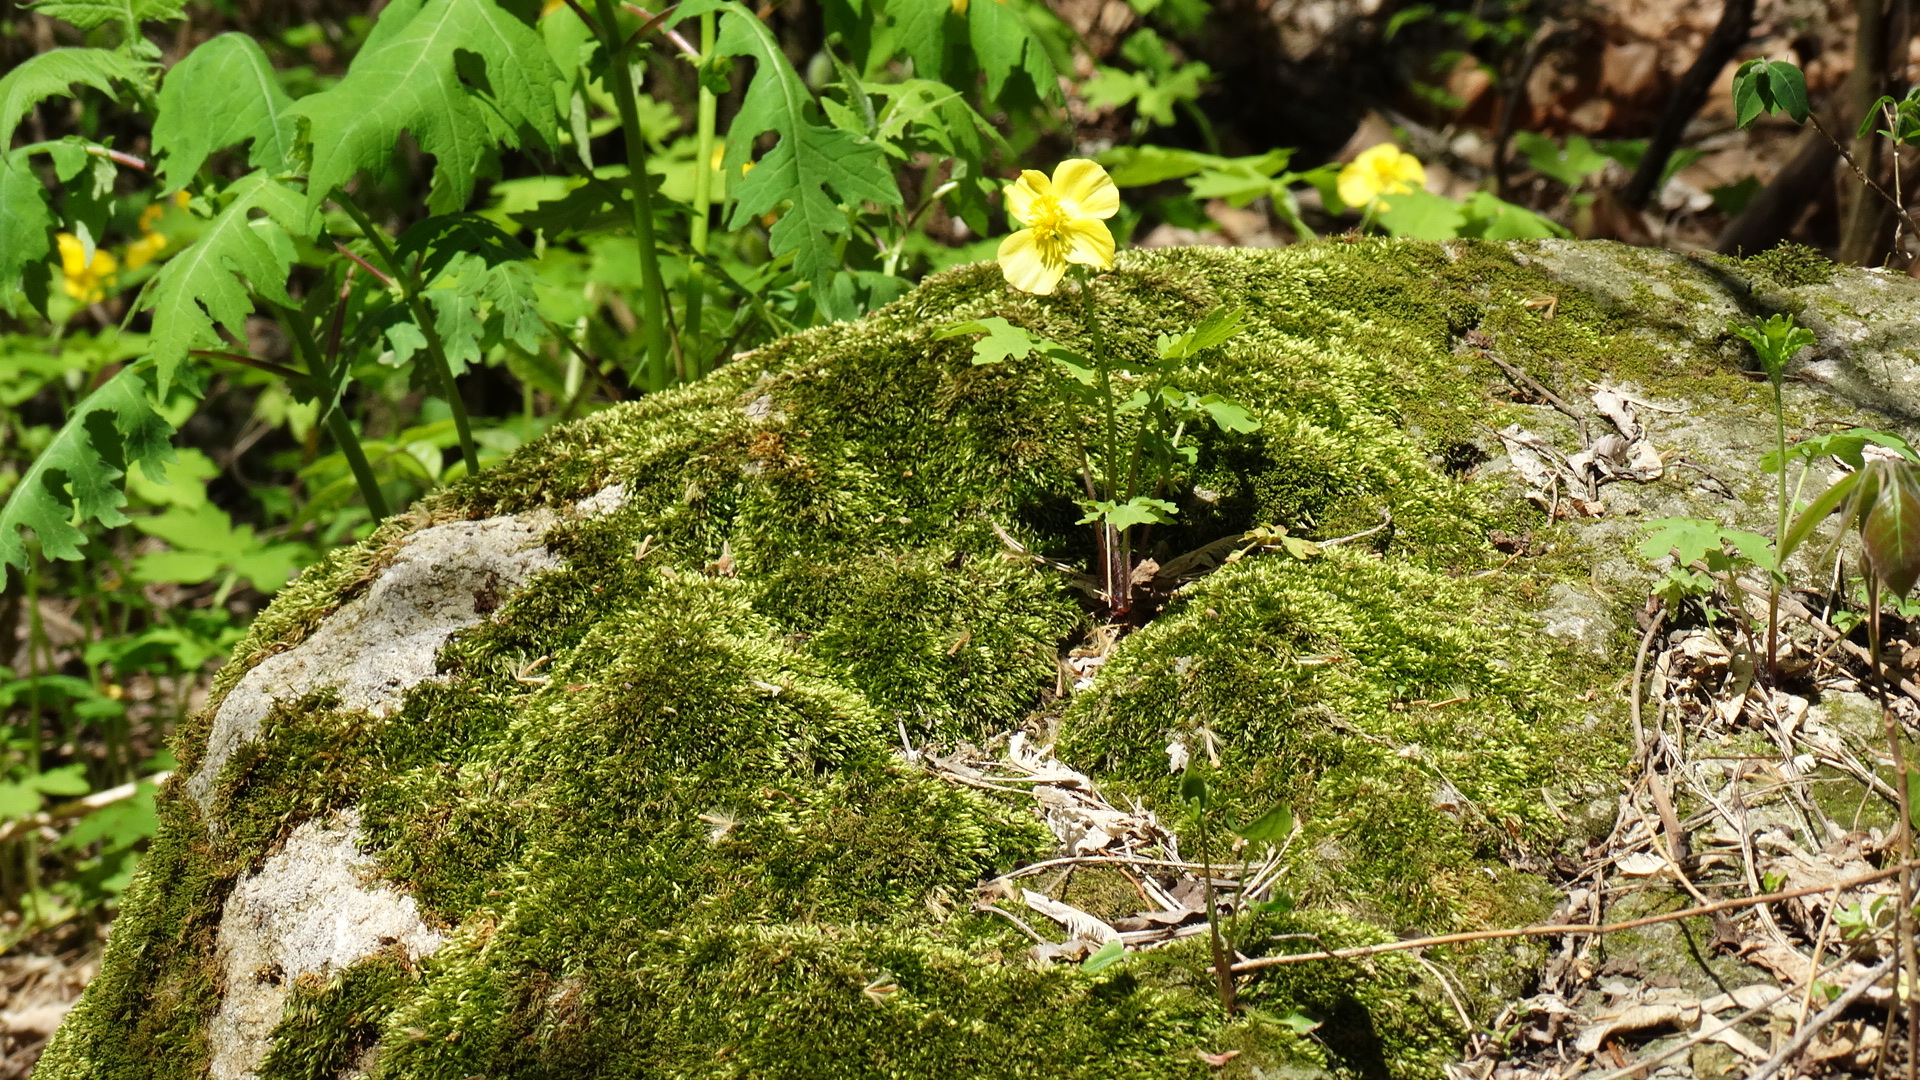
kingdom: Plantae
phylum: Tracheophyta
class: Magnoliopsida
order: Ranunculales
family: Papaveraceae
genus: Stylophorum
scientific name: Stylophorum diphyllum
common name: Celandine poppy
